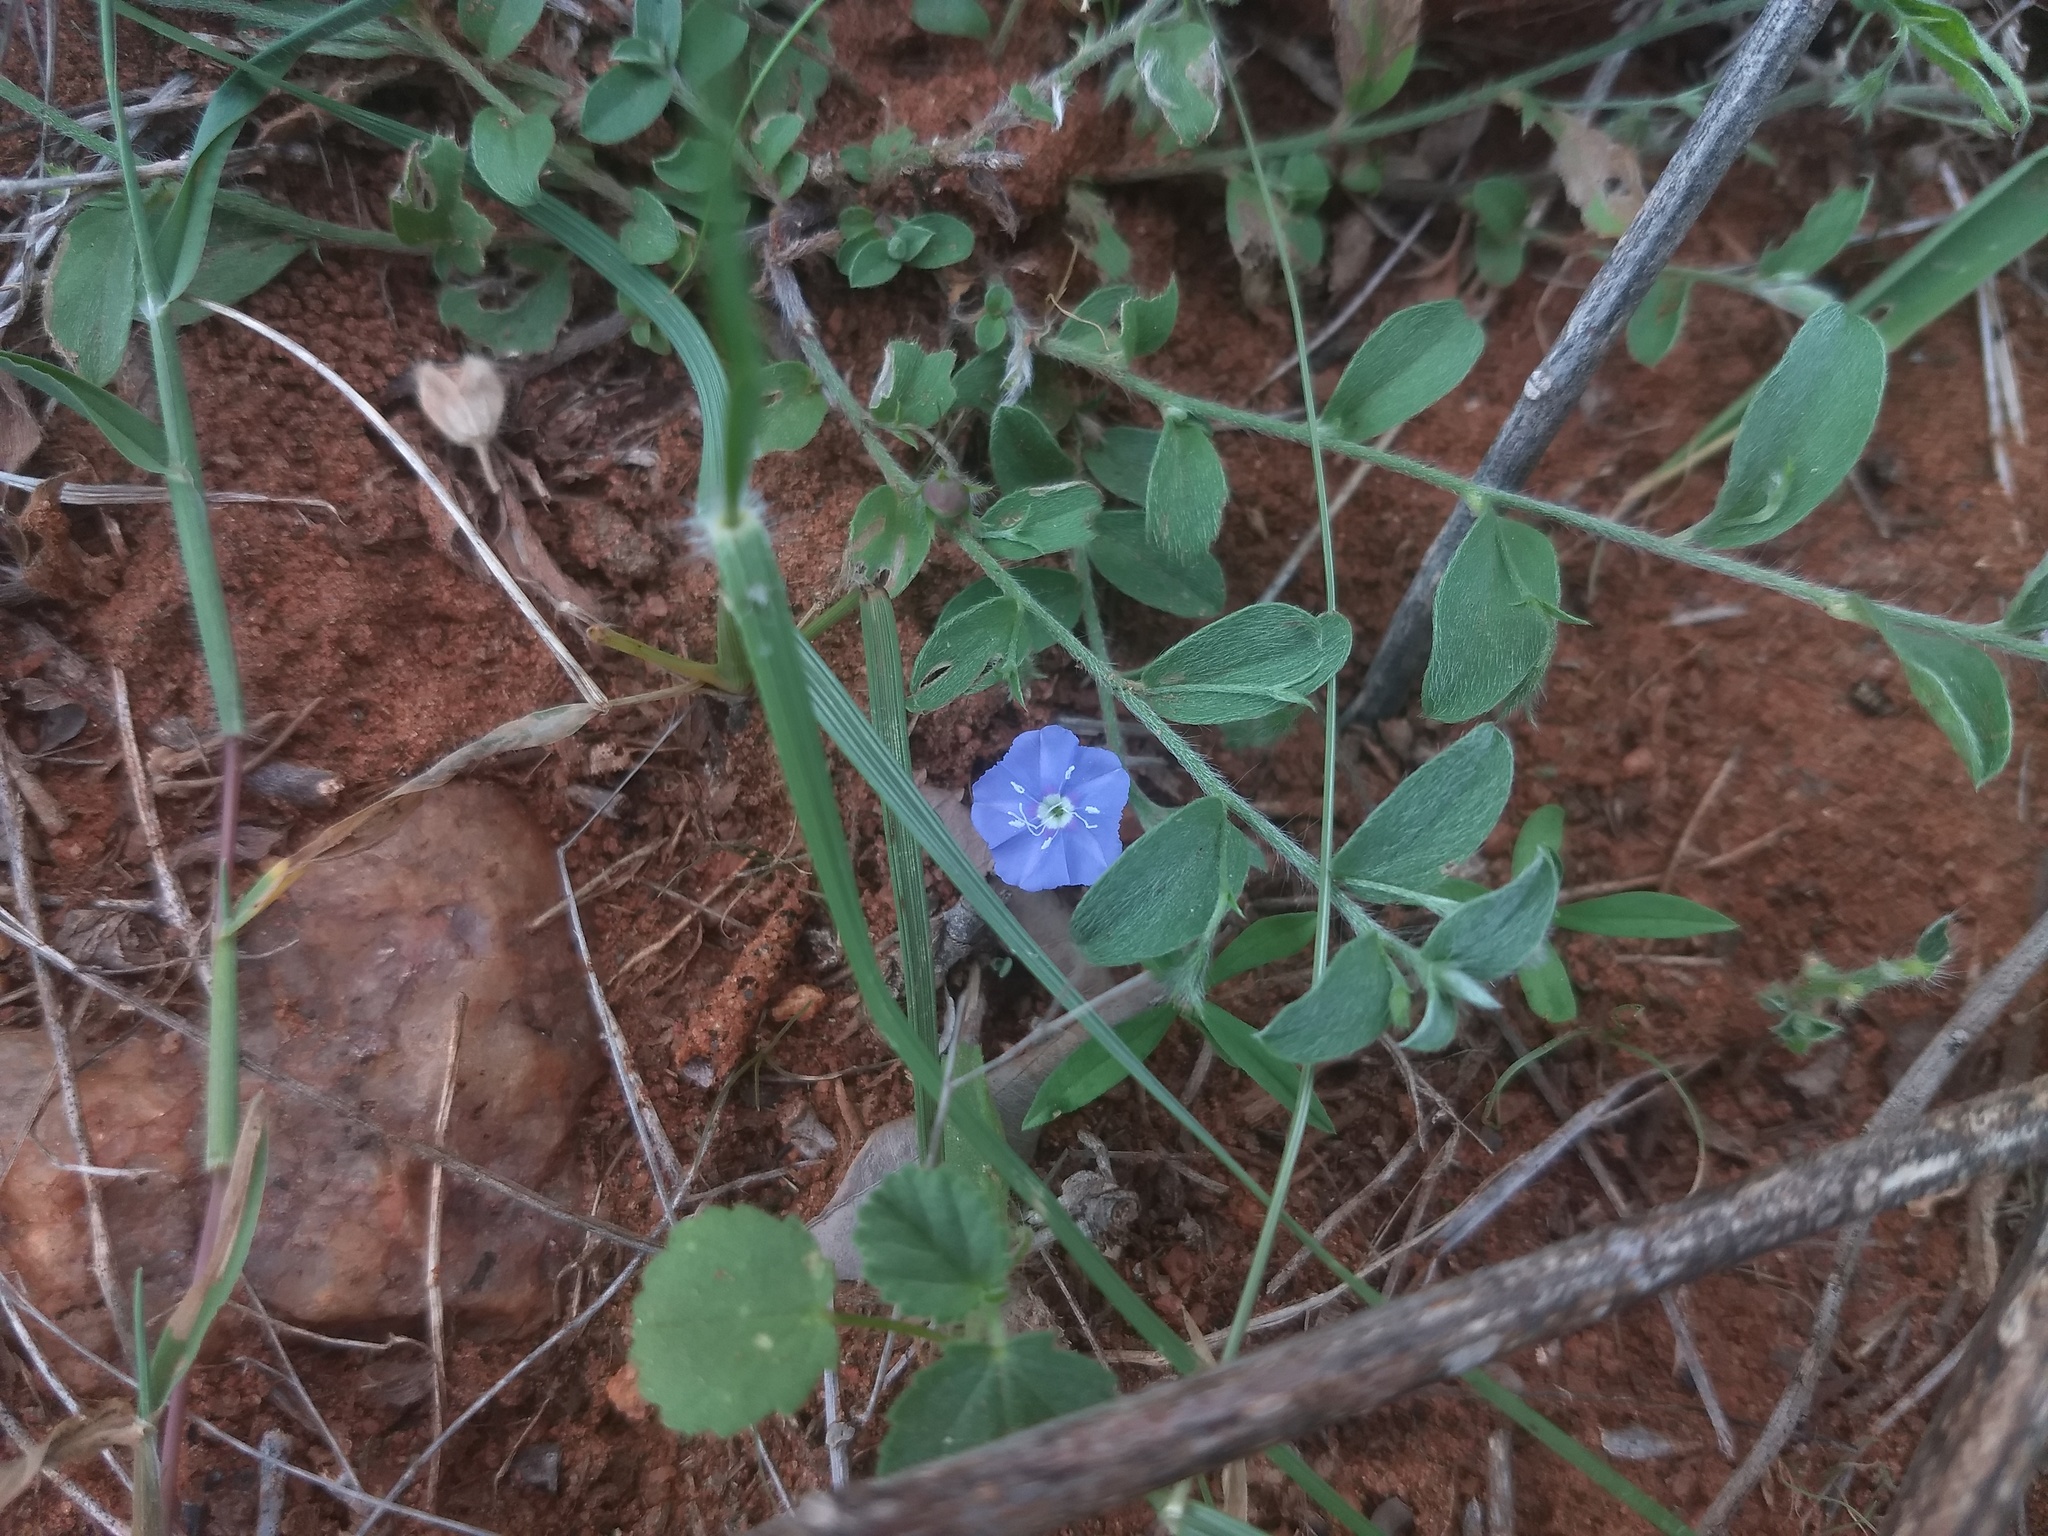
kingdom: Plantae
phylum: Tracheophyta
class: Magnoliopsida
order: Solanales
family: Convolvulaceae
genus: Evolvulus
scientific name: Evolvulus alsinoides
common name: Slender dwarf morning-glory
